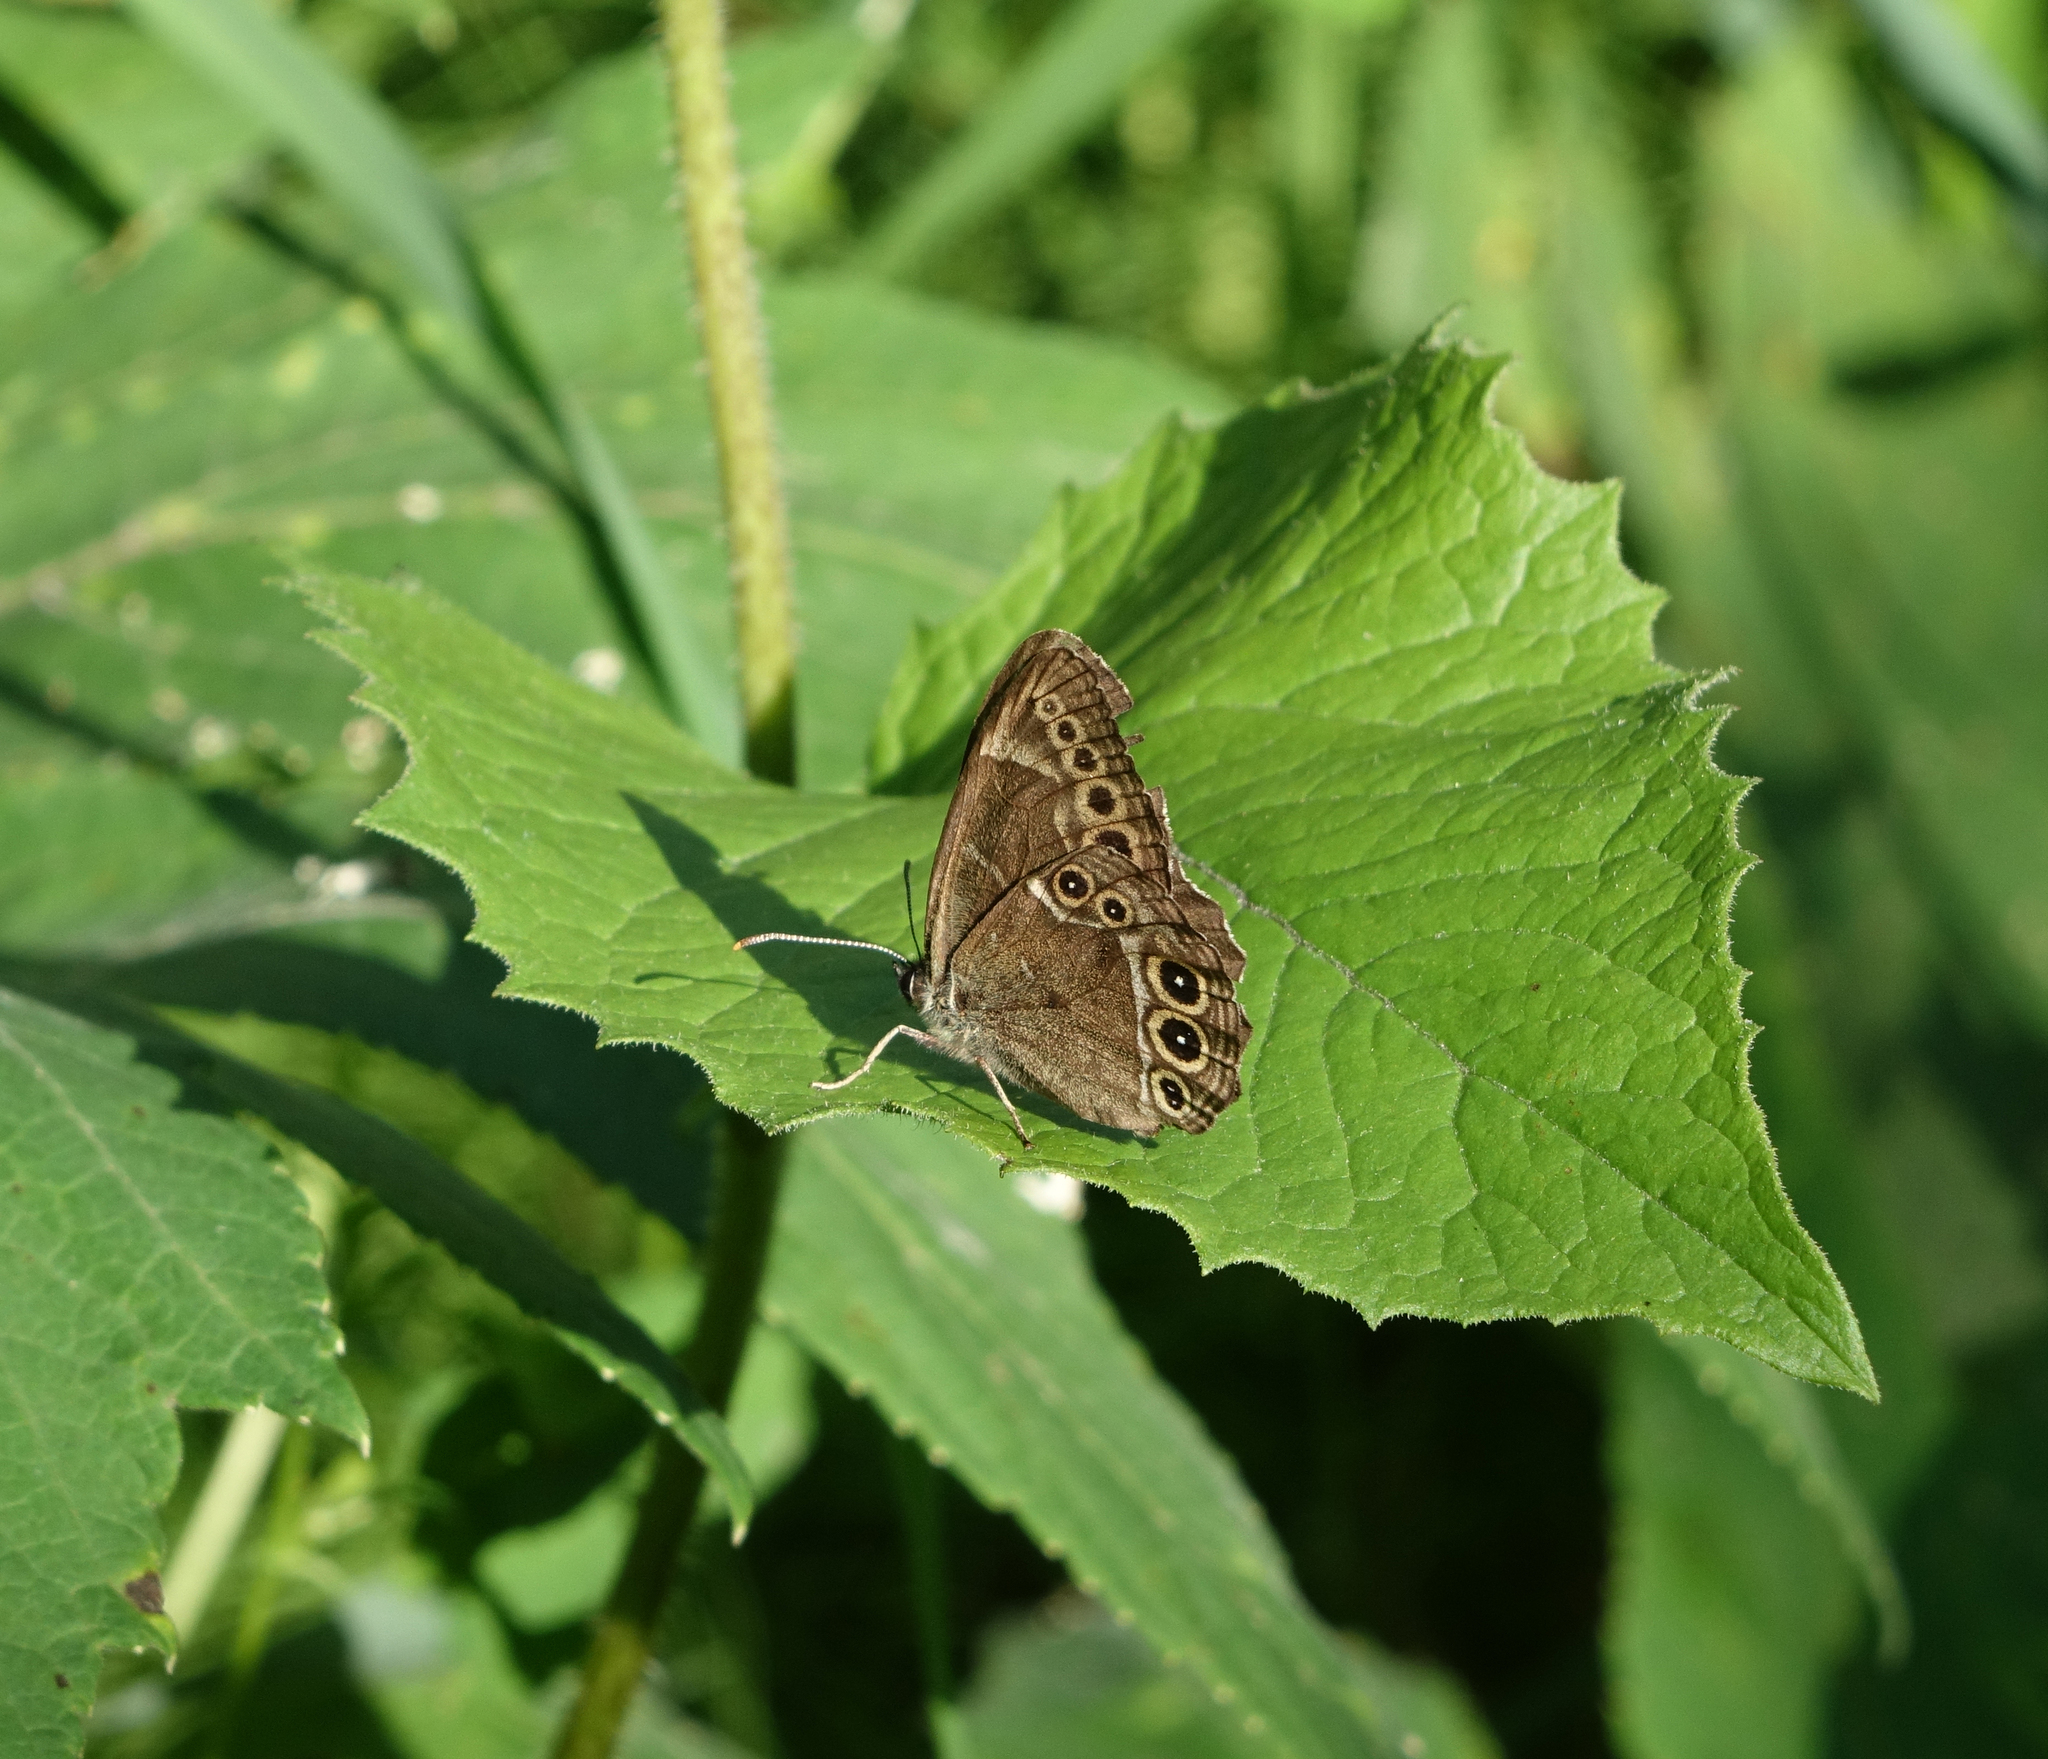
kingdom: Animalia
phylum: Arthropoda
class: Insecta
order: Lepidoptera
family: Nymphalidae
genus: Pararge
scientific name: Pararge Lopinga achine
